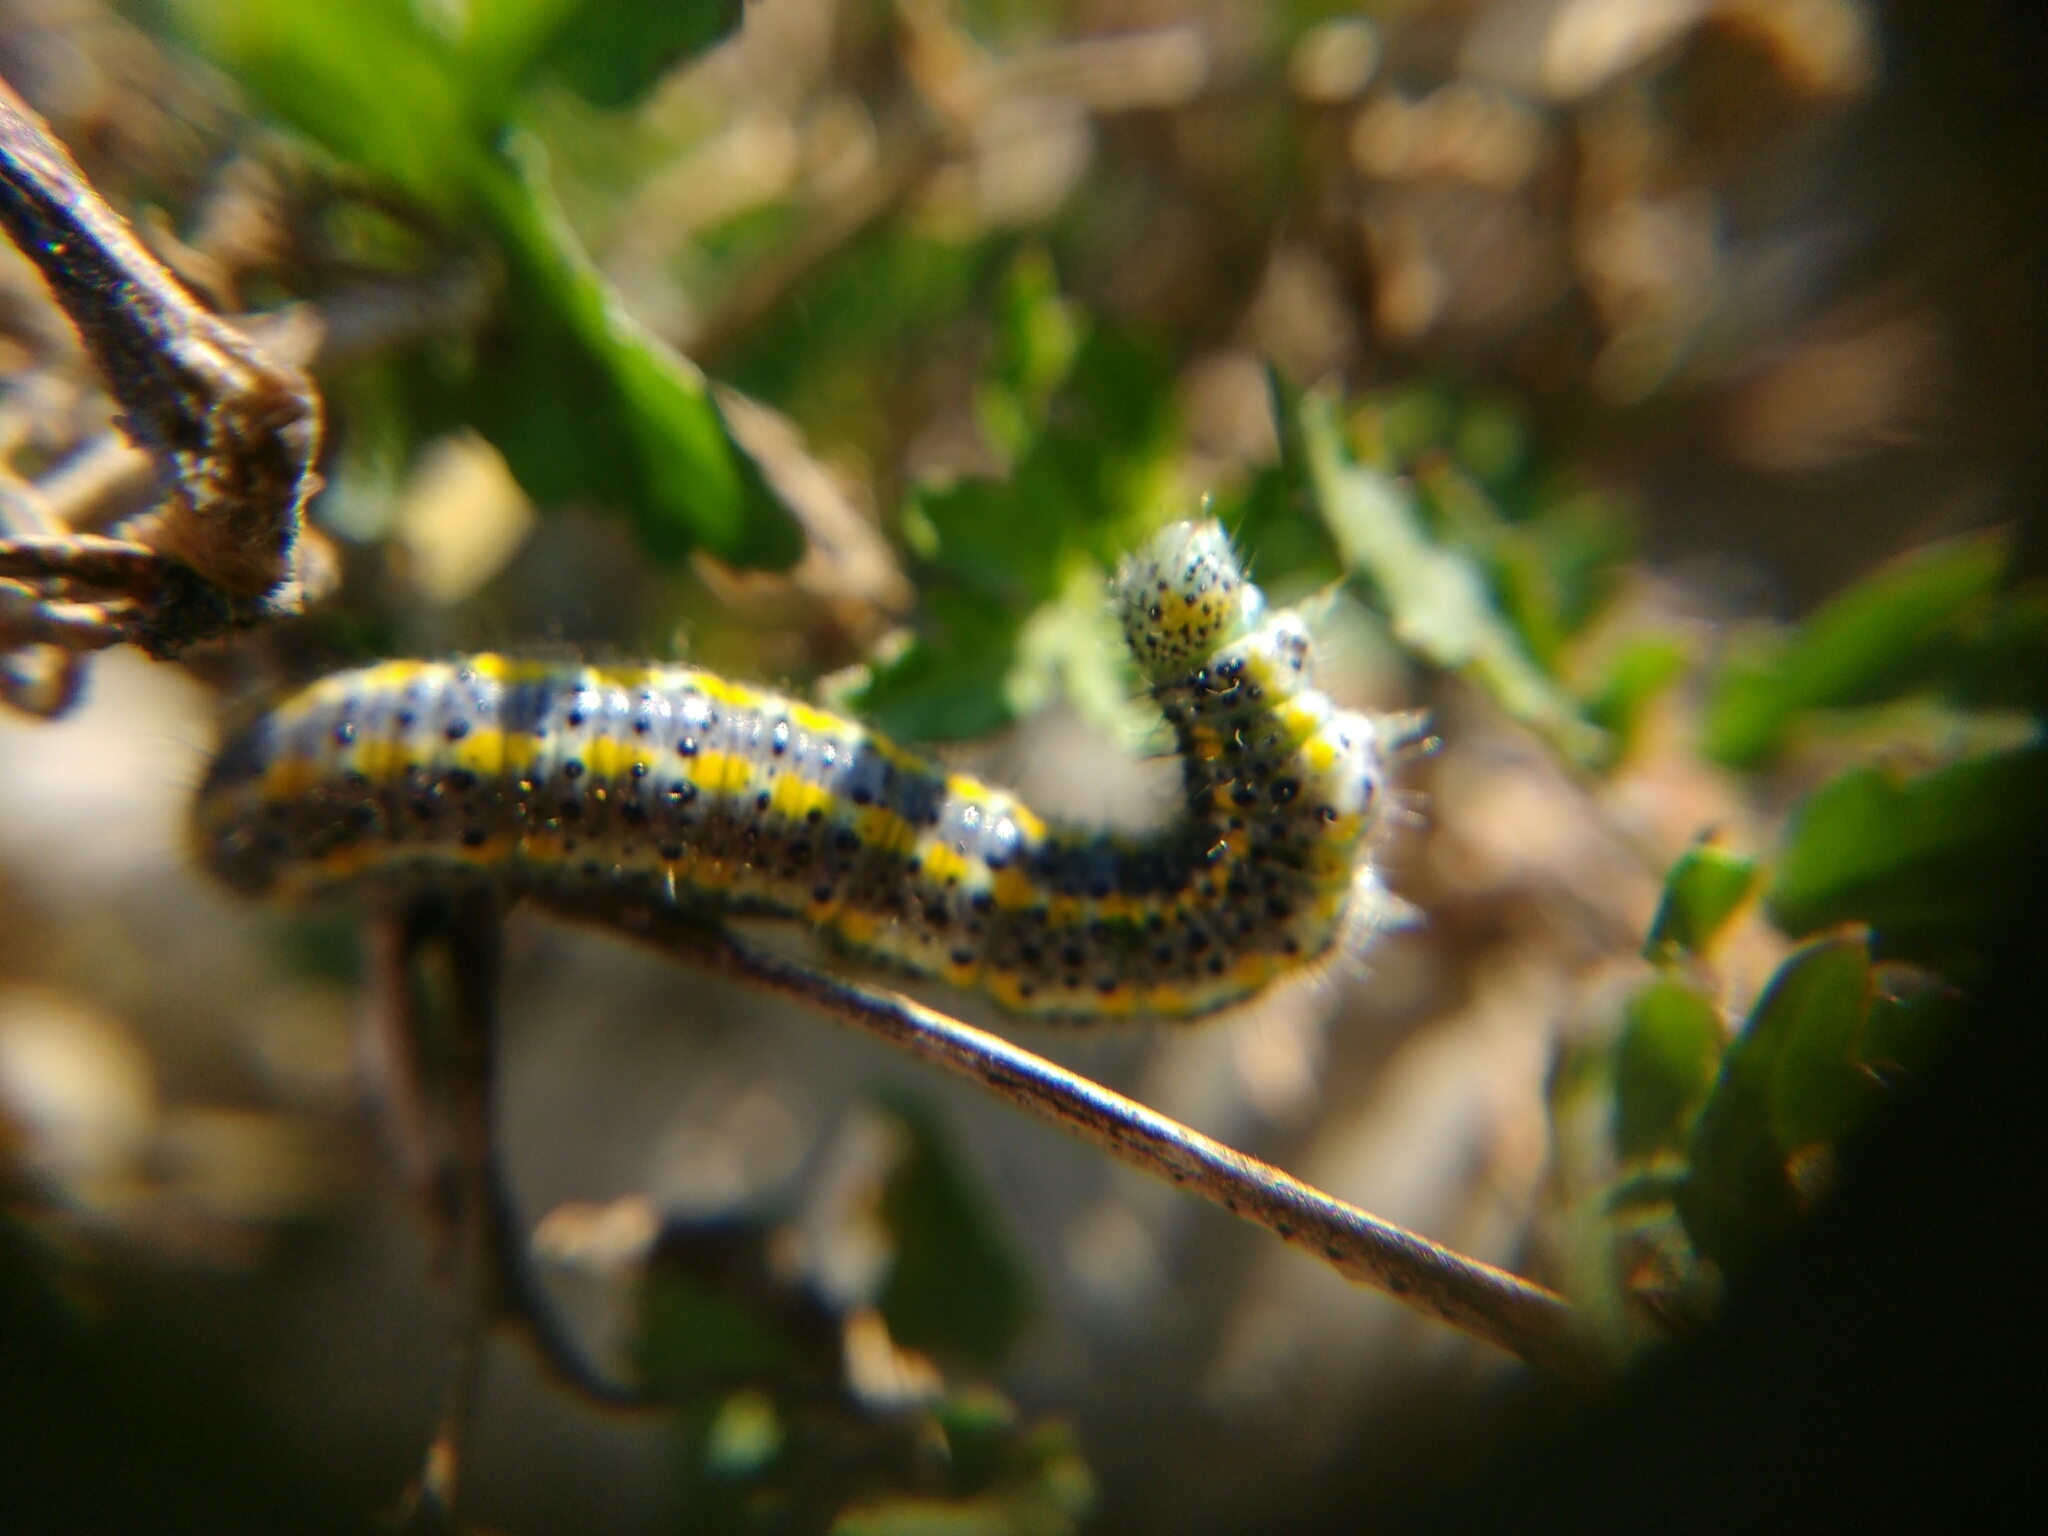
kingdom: Animalia
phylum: Arthropoda
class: Insecta
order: Lepidoptera
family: Pieridae
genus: Pontia
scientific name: Pontia edusa
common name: Eastern bath white
